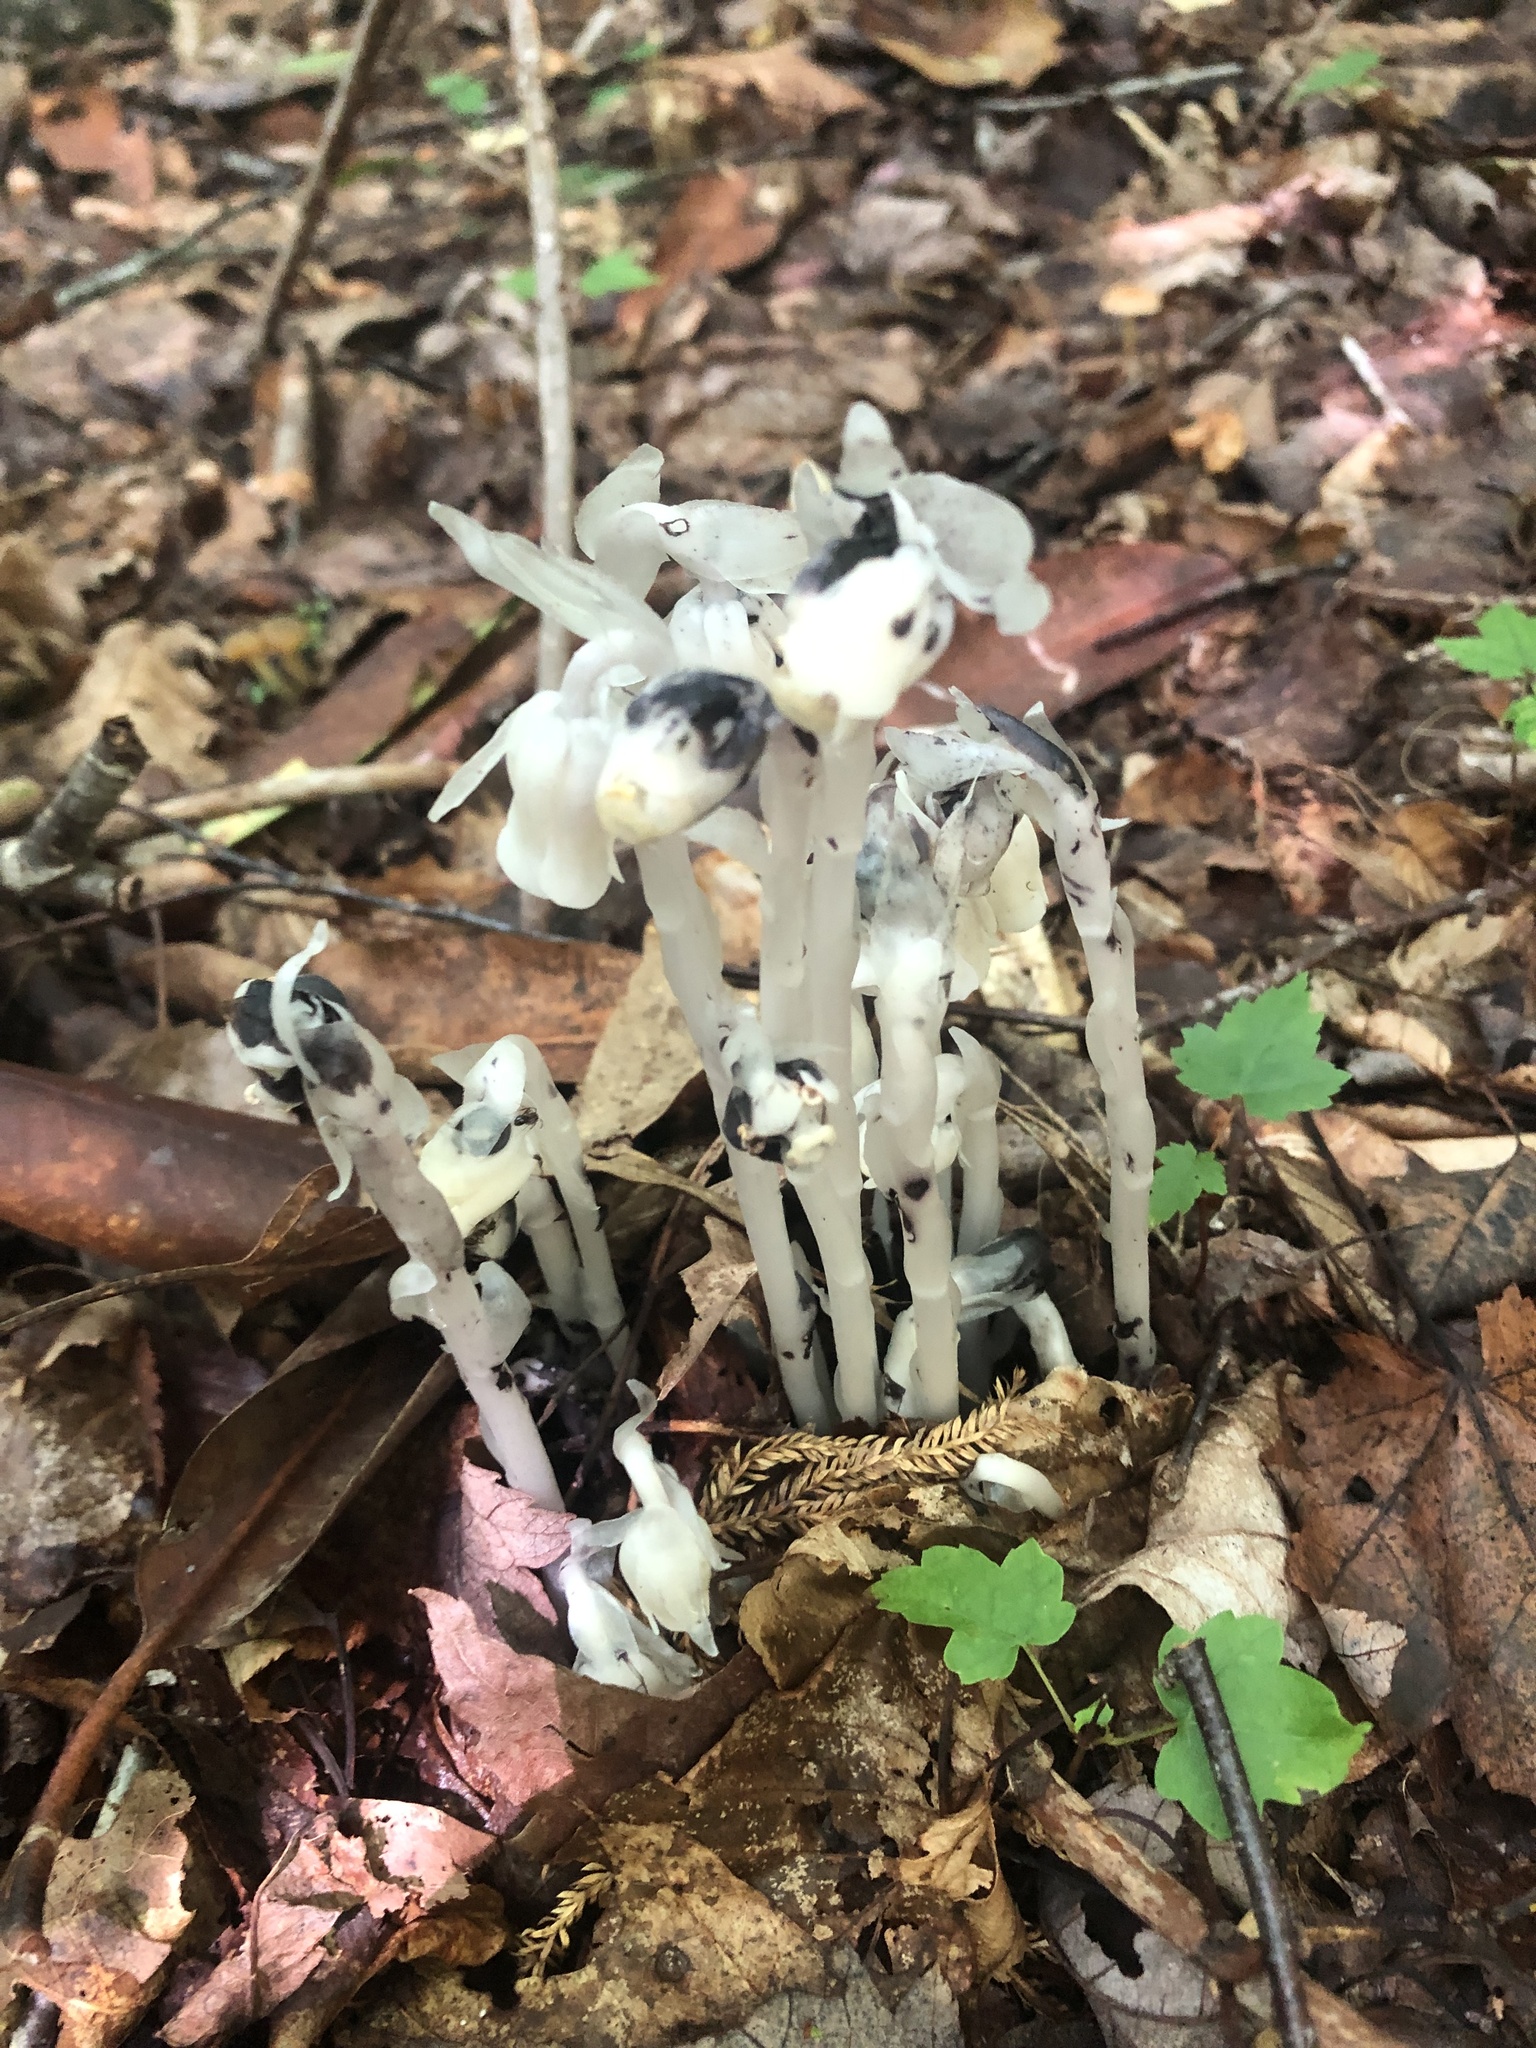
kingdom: Plantae
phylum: Tracheophyta
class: Magnoliopsida
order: Ericales
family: Ericaceae
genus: Monotropa
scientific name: Monotropa uniflora
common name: Convulsion root
